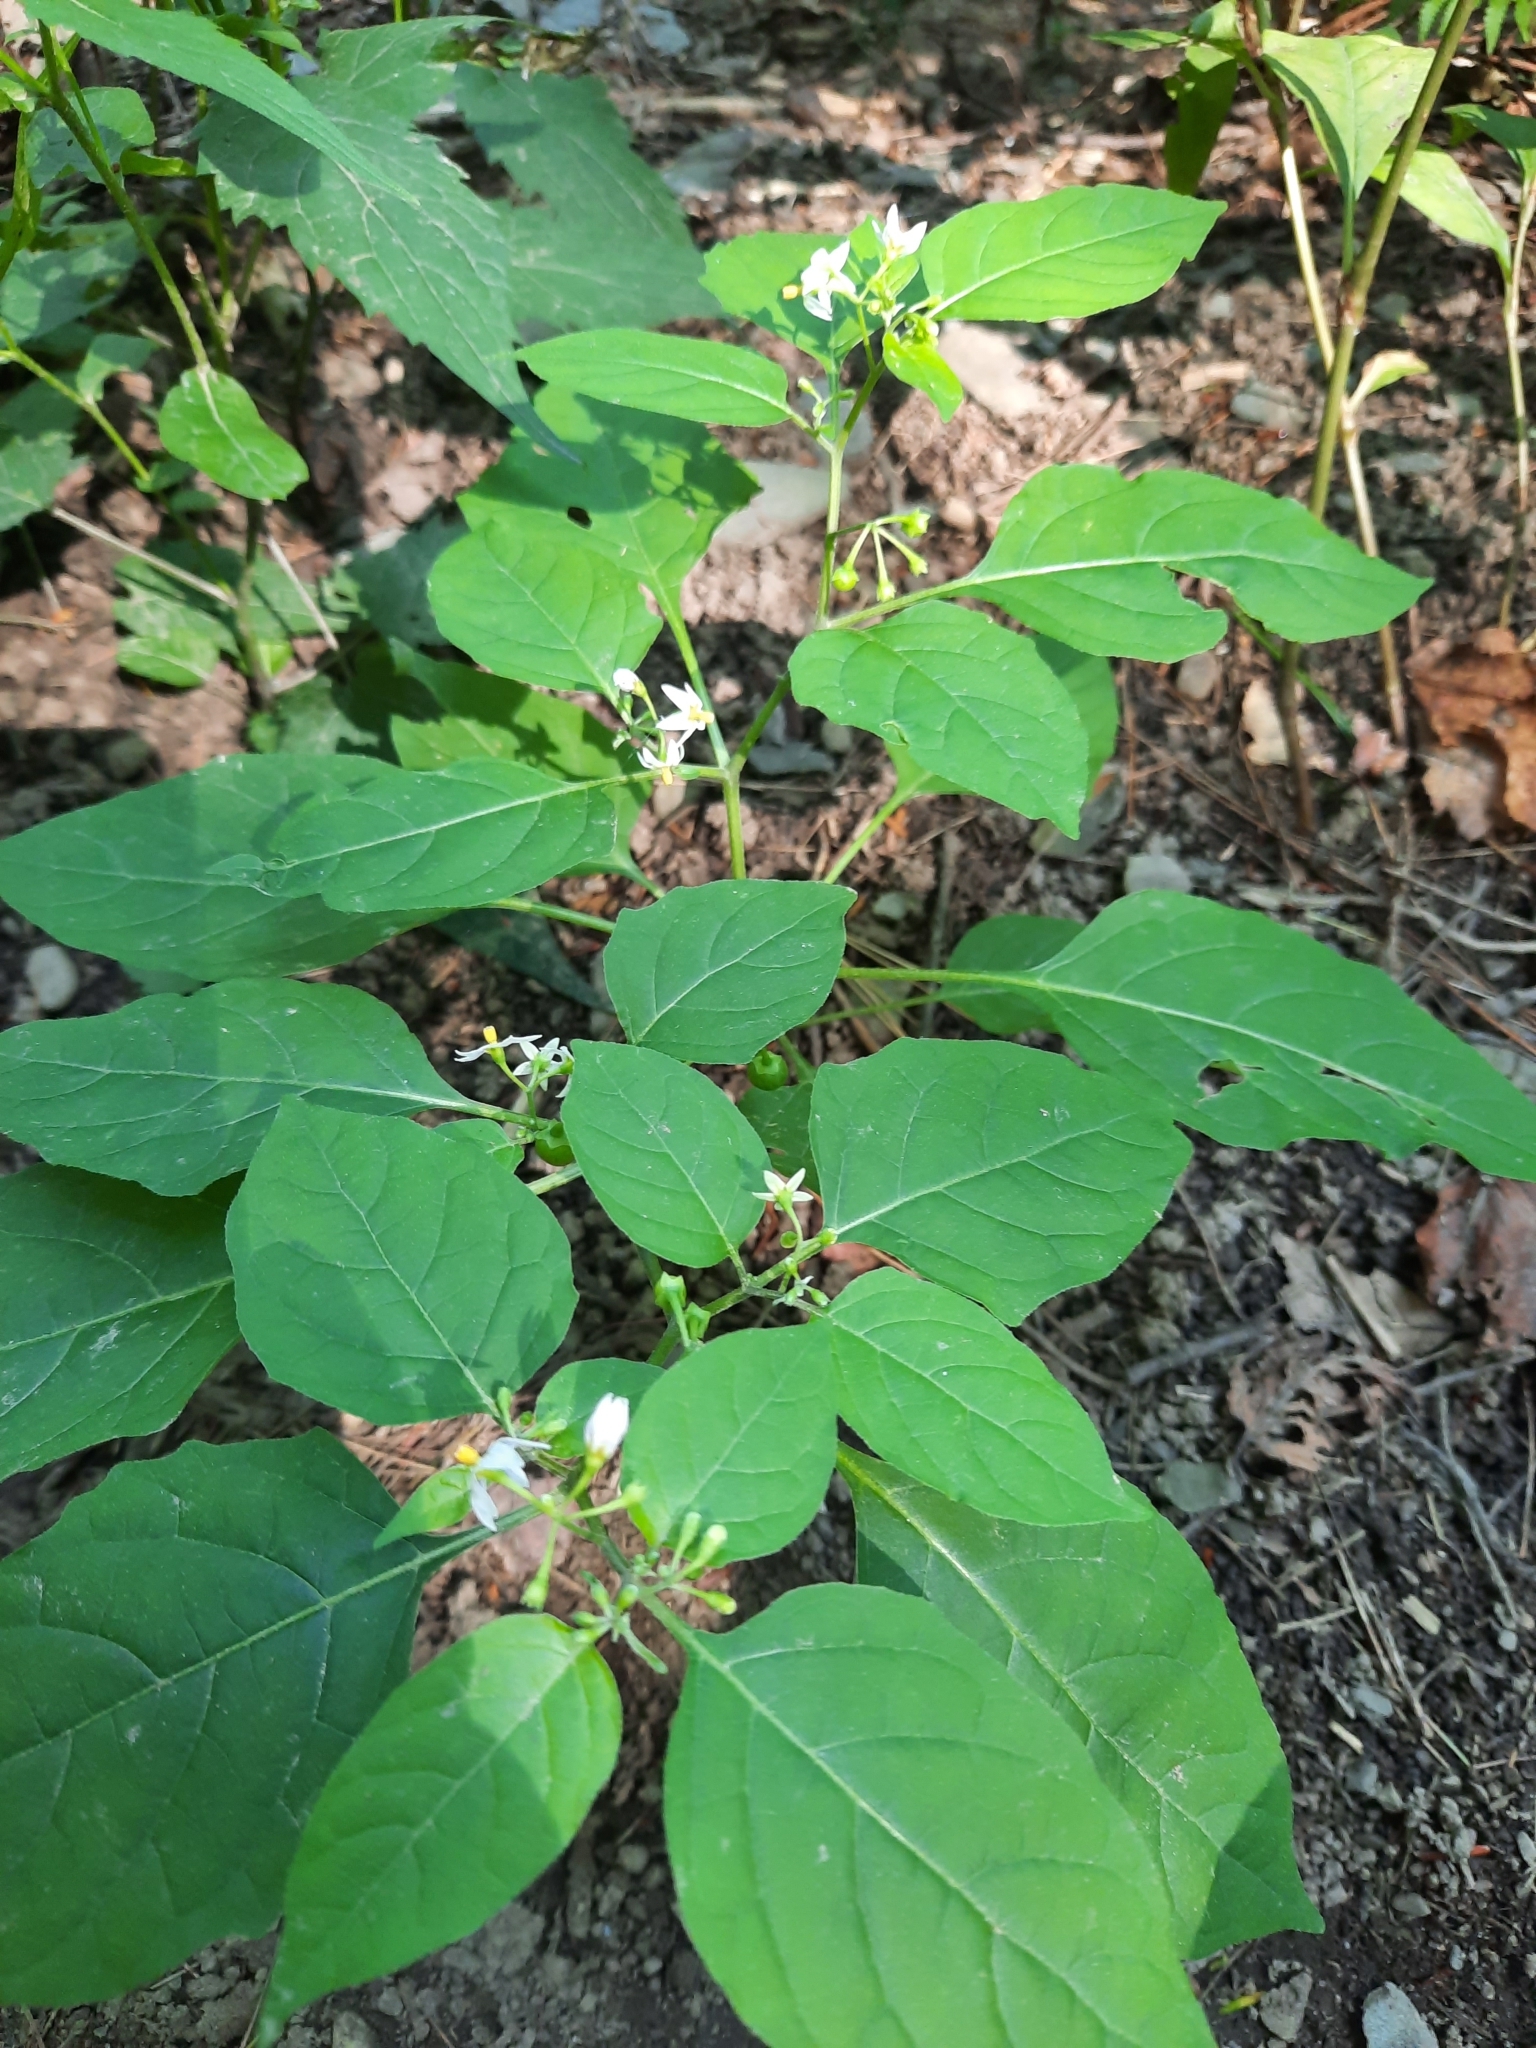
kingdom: Plantae
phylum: Tracheophyta
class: Magnoliopsida
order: Solanales
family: Solanaceae
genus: Solanum
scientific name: Solanum emulans
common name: Eastern black nightshade
